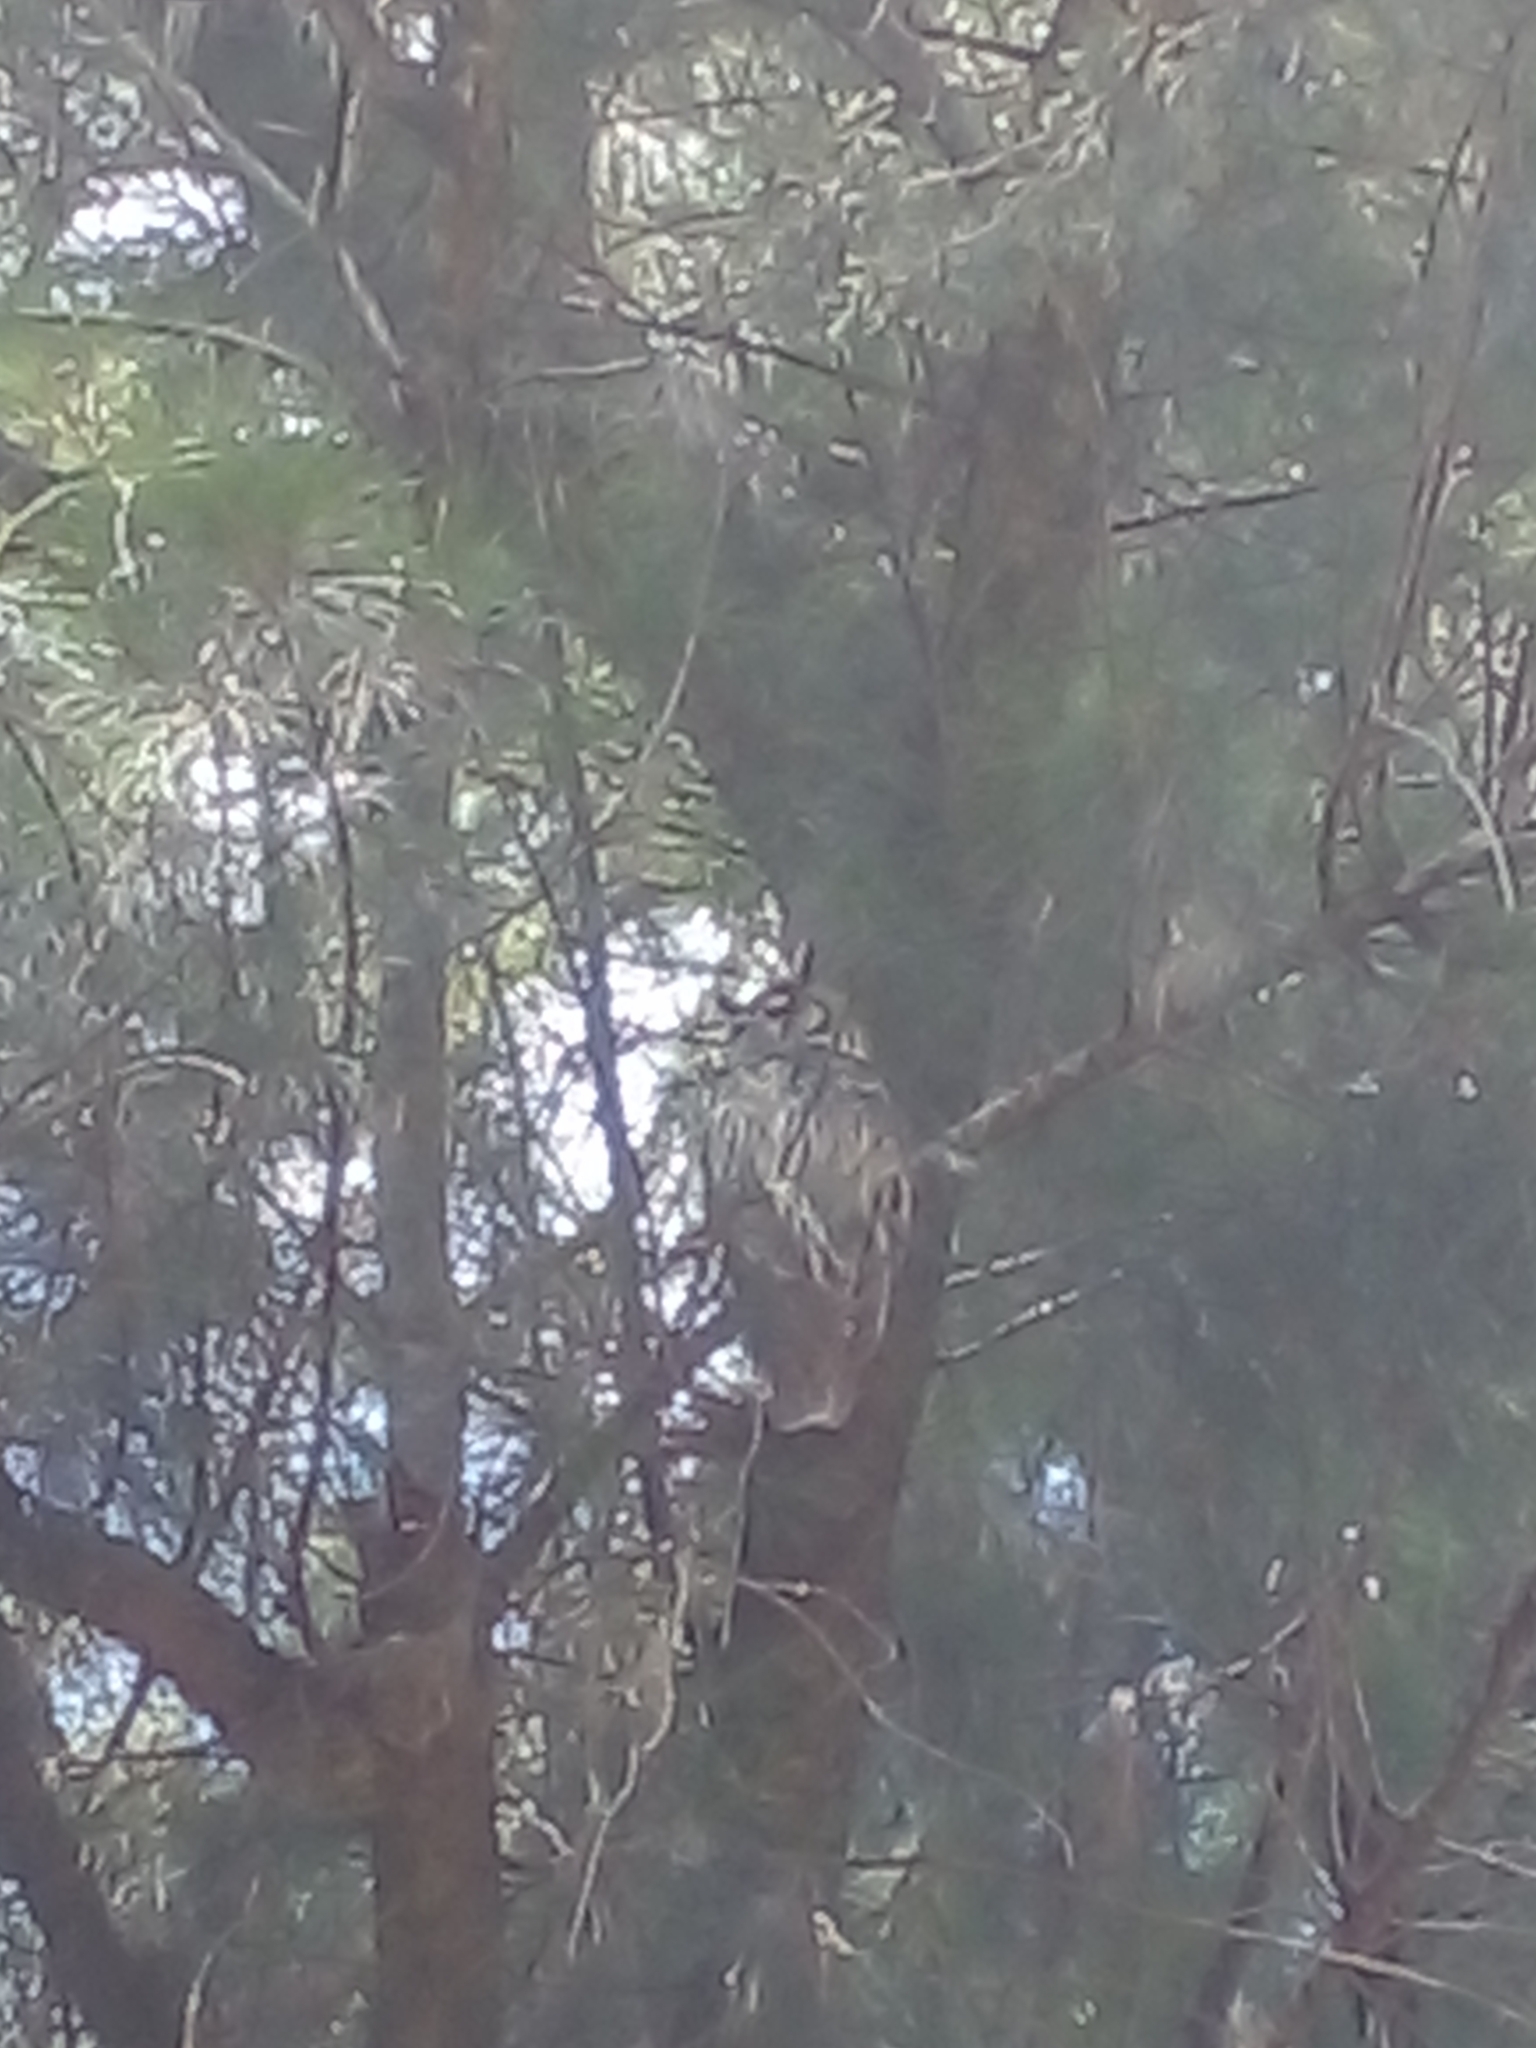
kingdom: Animalia
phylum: Chordata
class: Aves
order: Strigiformes
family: Strigidae
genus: Pseudoscops
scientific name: Pseudoscops clamator
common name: Striped owl
